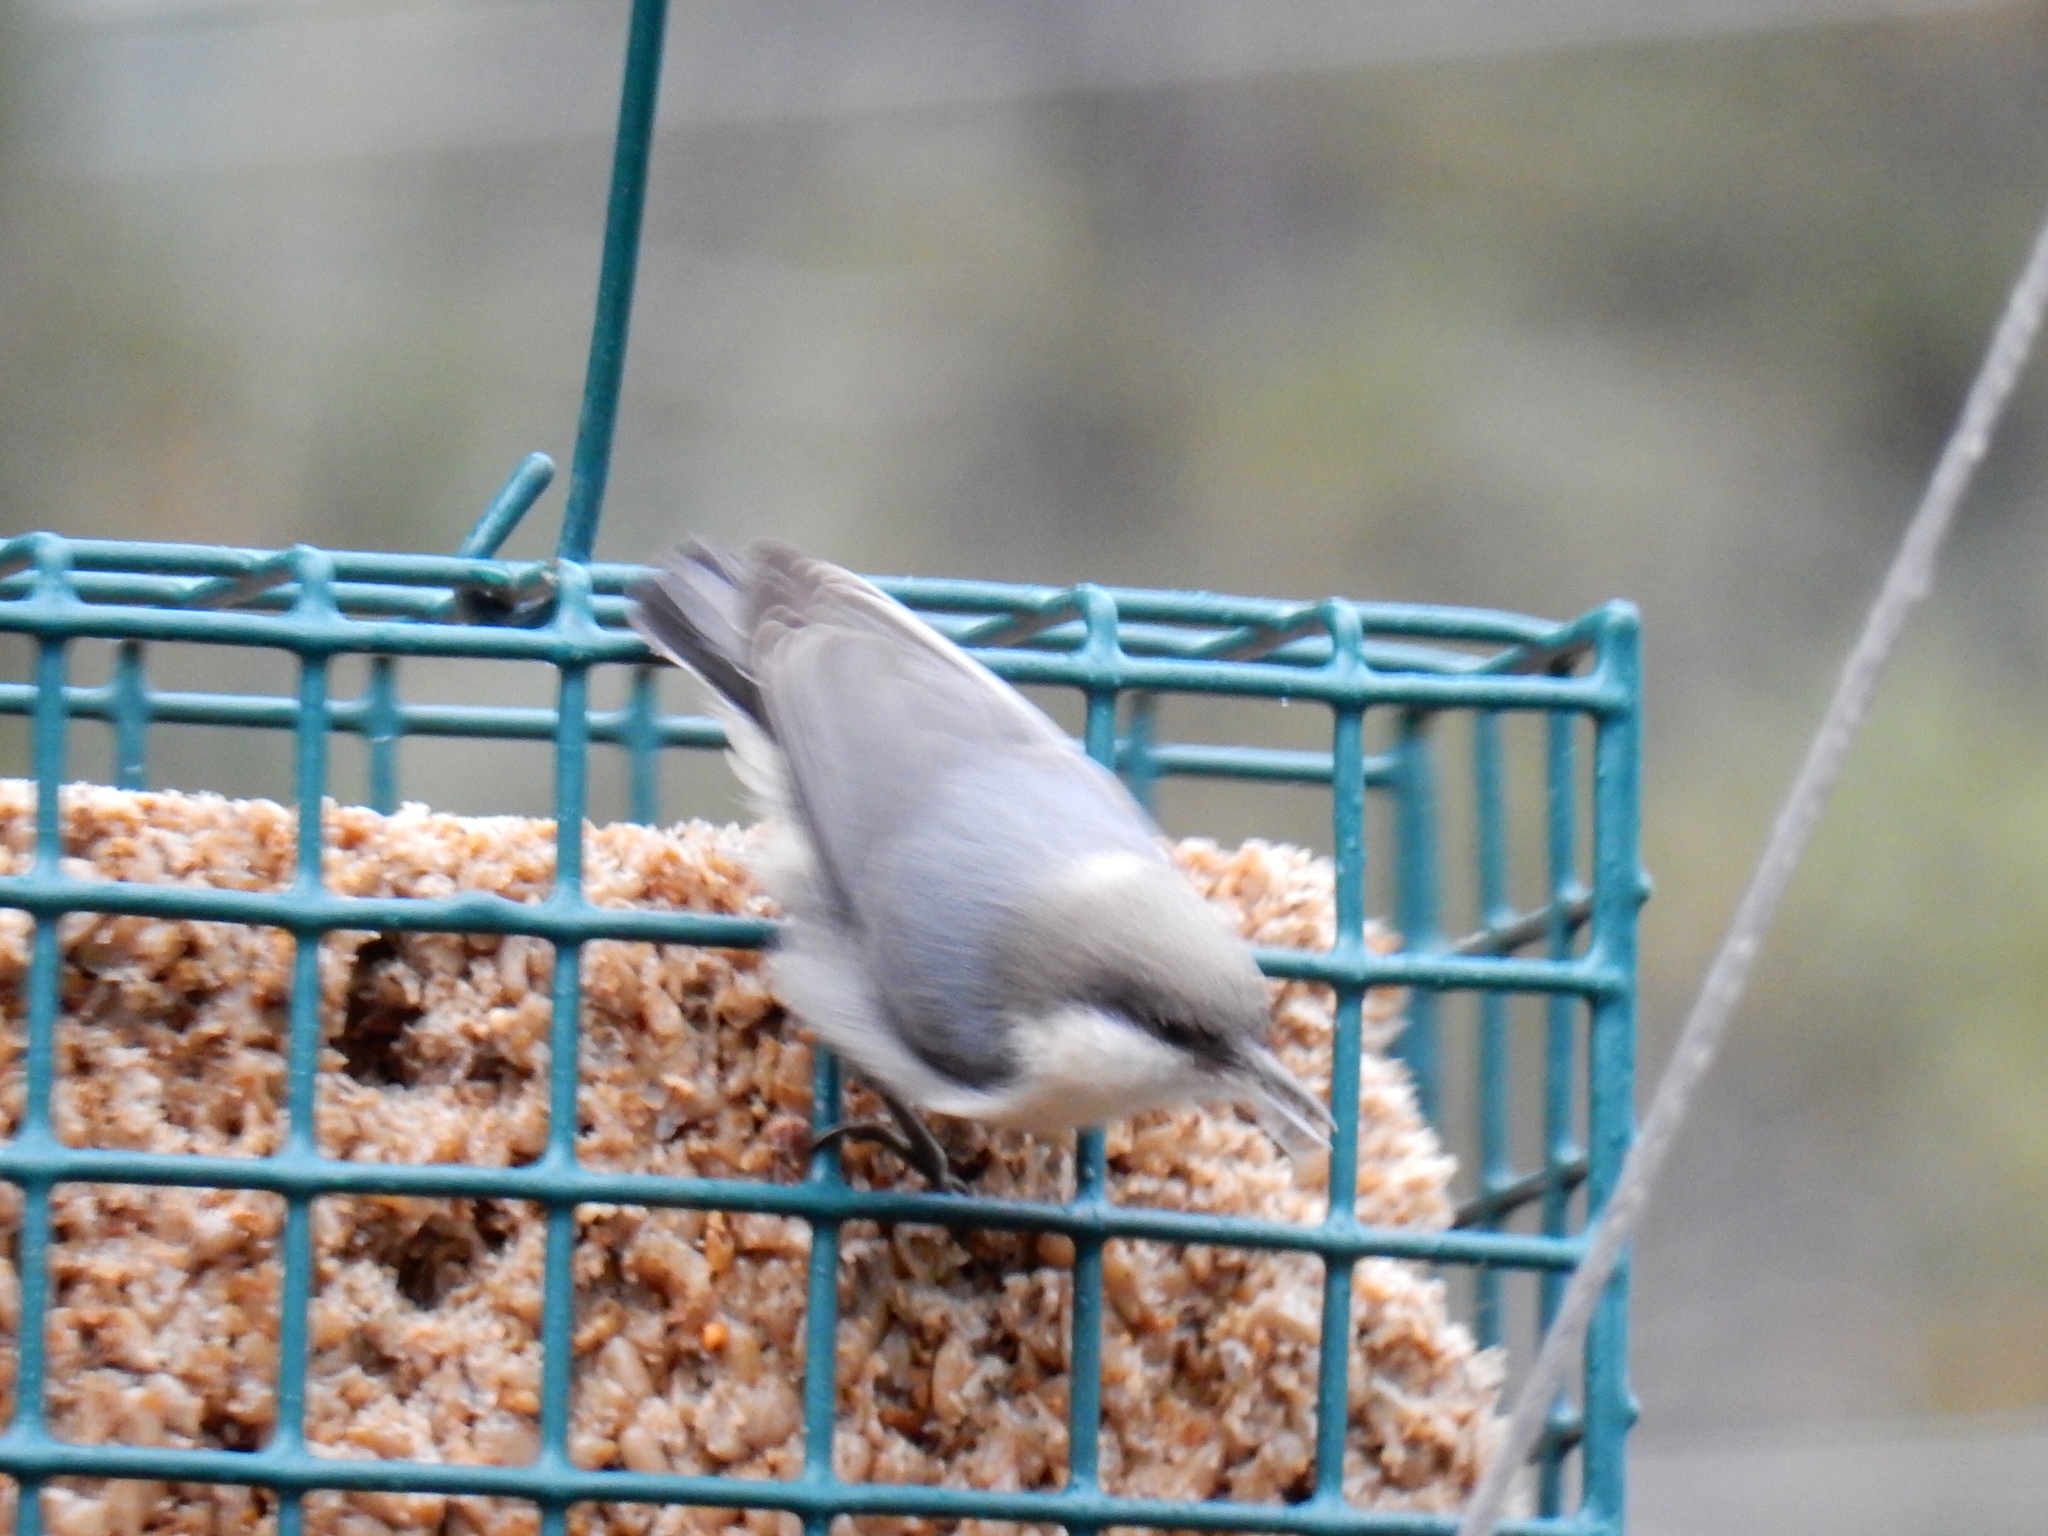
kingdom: Animalia
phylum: Chordata
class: Aves
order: Passeriformes
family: Sittidae
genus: Sitta
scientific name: Sitta pygmaea
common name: Pygmy nuthatch
